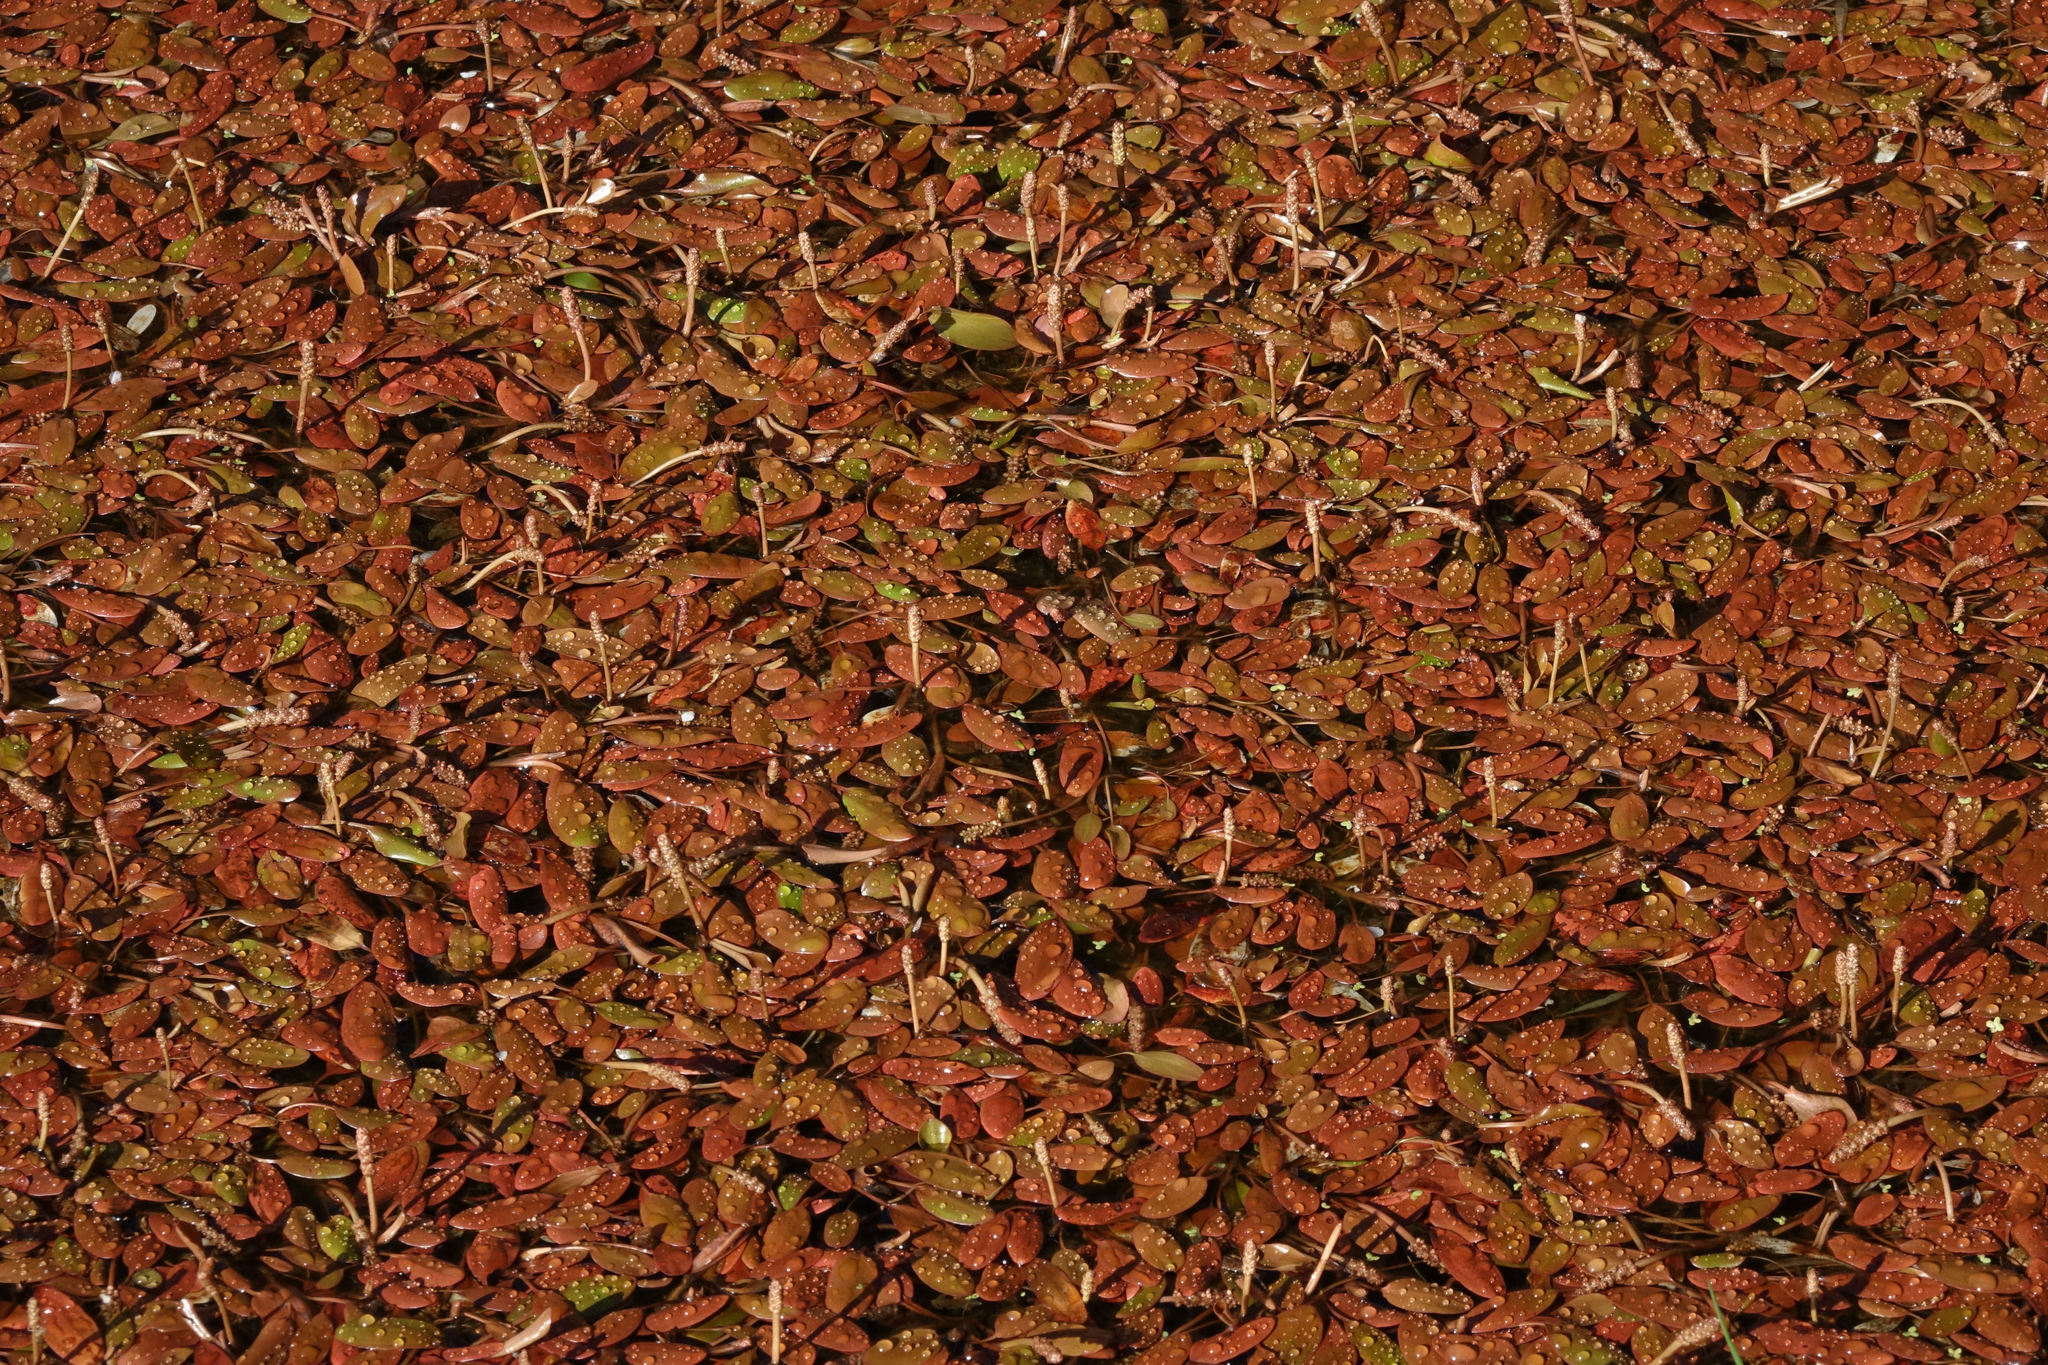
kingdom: Plantae
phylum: Tracheophyta
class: Liliopsida
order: Alismatales
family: Potamogetonaceae
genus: Potamogeton
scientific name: Potamogeton cheesemanii
